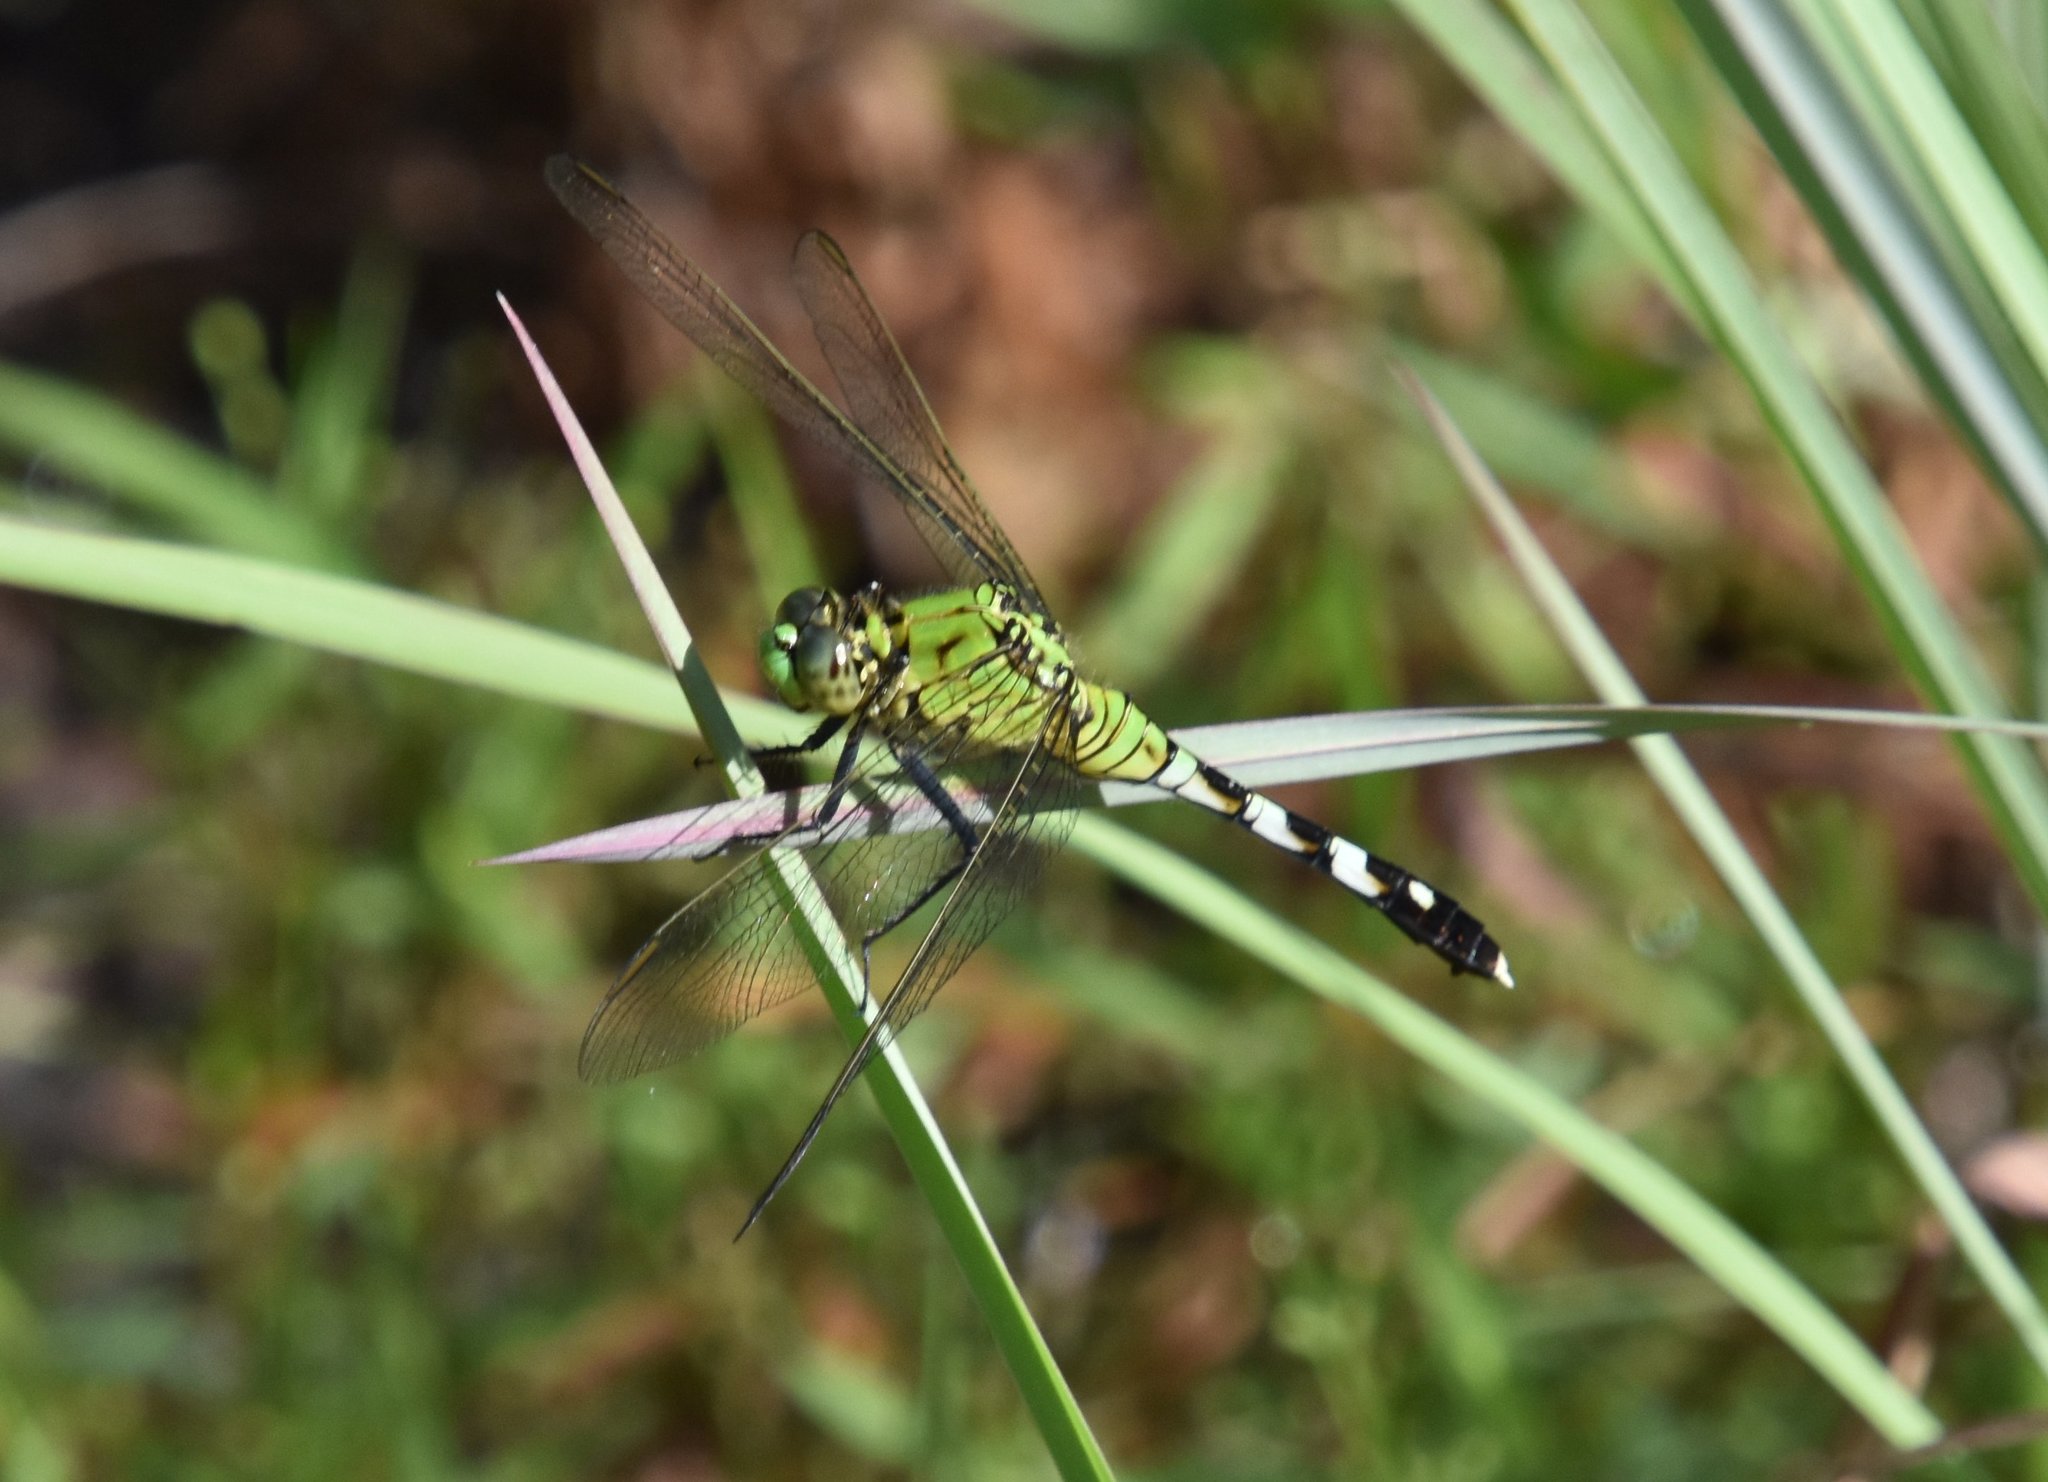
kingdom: Animalia
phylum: Arthropoda
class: Insecta
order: Odonata
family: Libellulidae
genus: Erythemis
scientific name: Erythemis simplicicollis
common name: Eastern pondhawk
